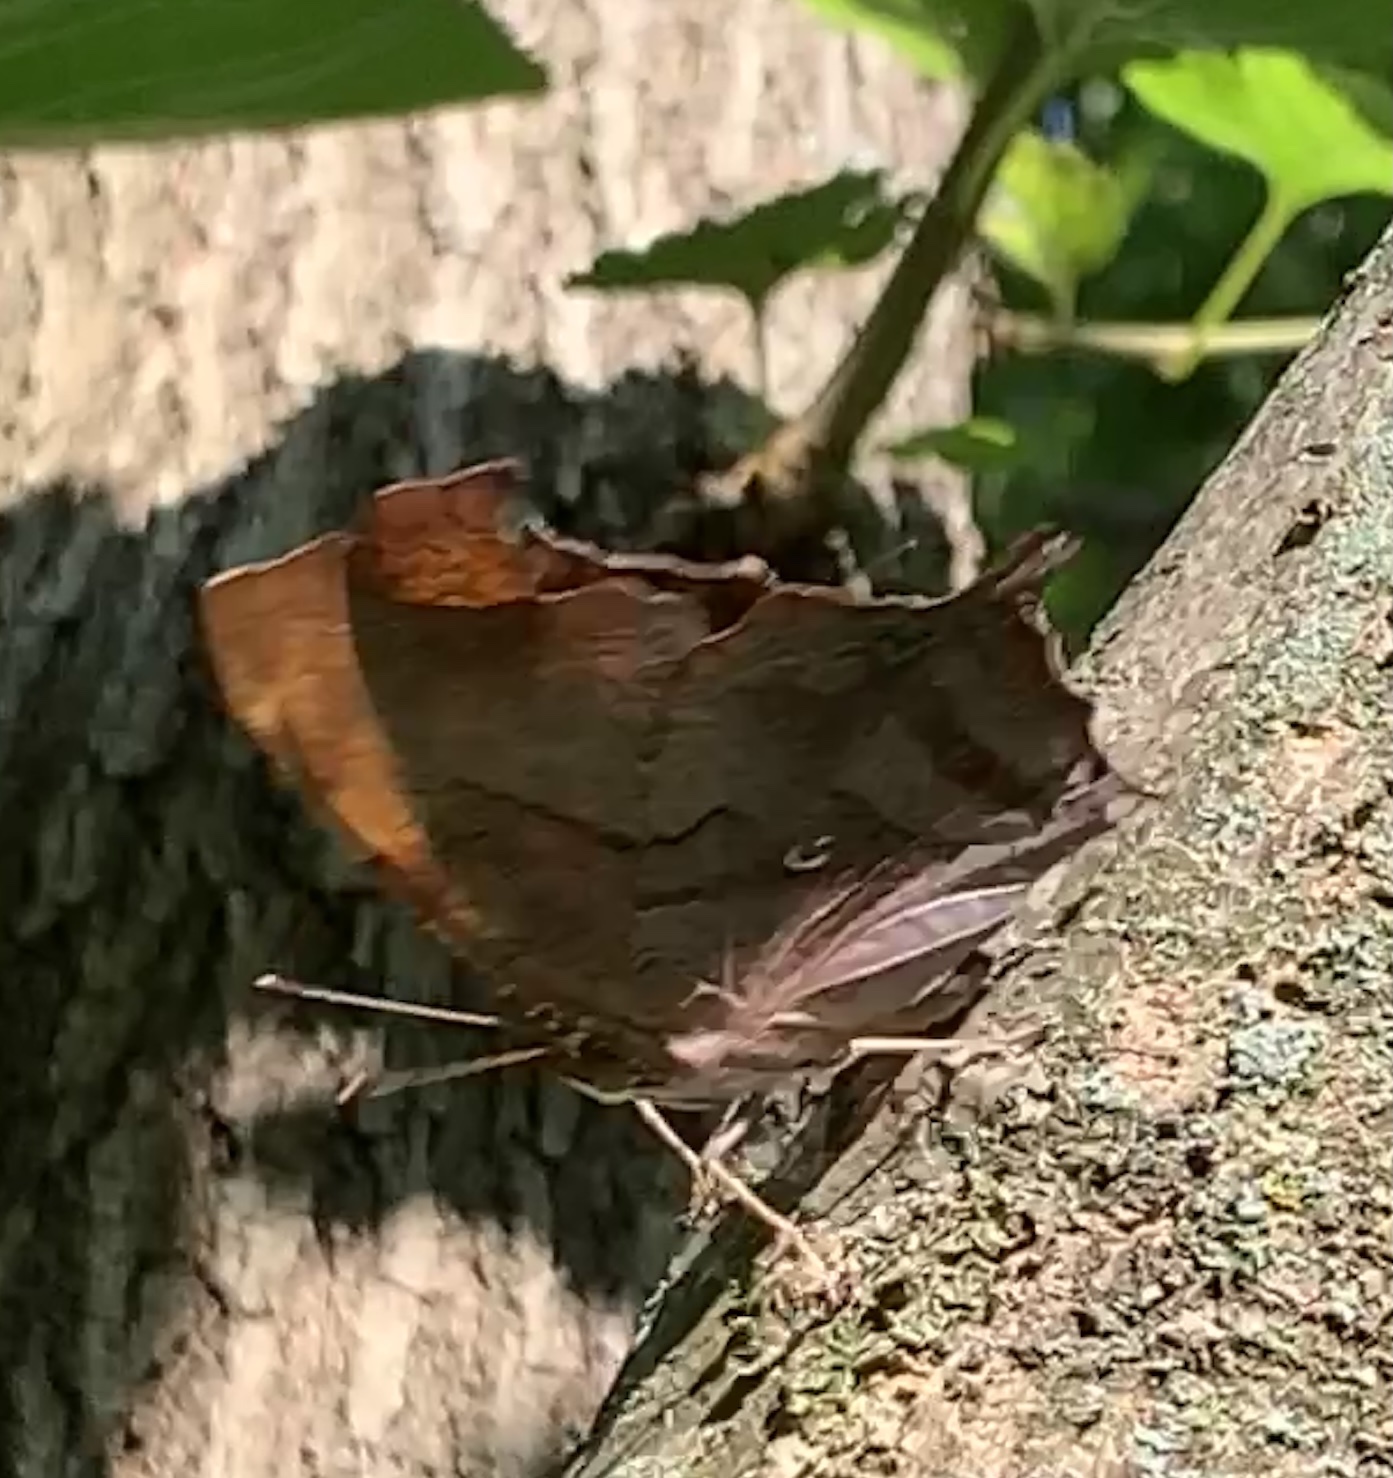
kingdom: Animalia
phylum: Arthropoda
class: Insecta
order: Lepidoptera
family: Nymphalidae
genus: Polygonia
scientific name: Polygonia interrogationis
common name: Question mark
